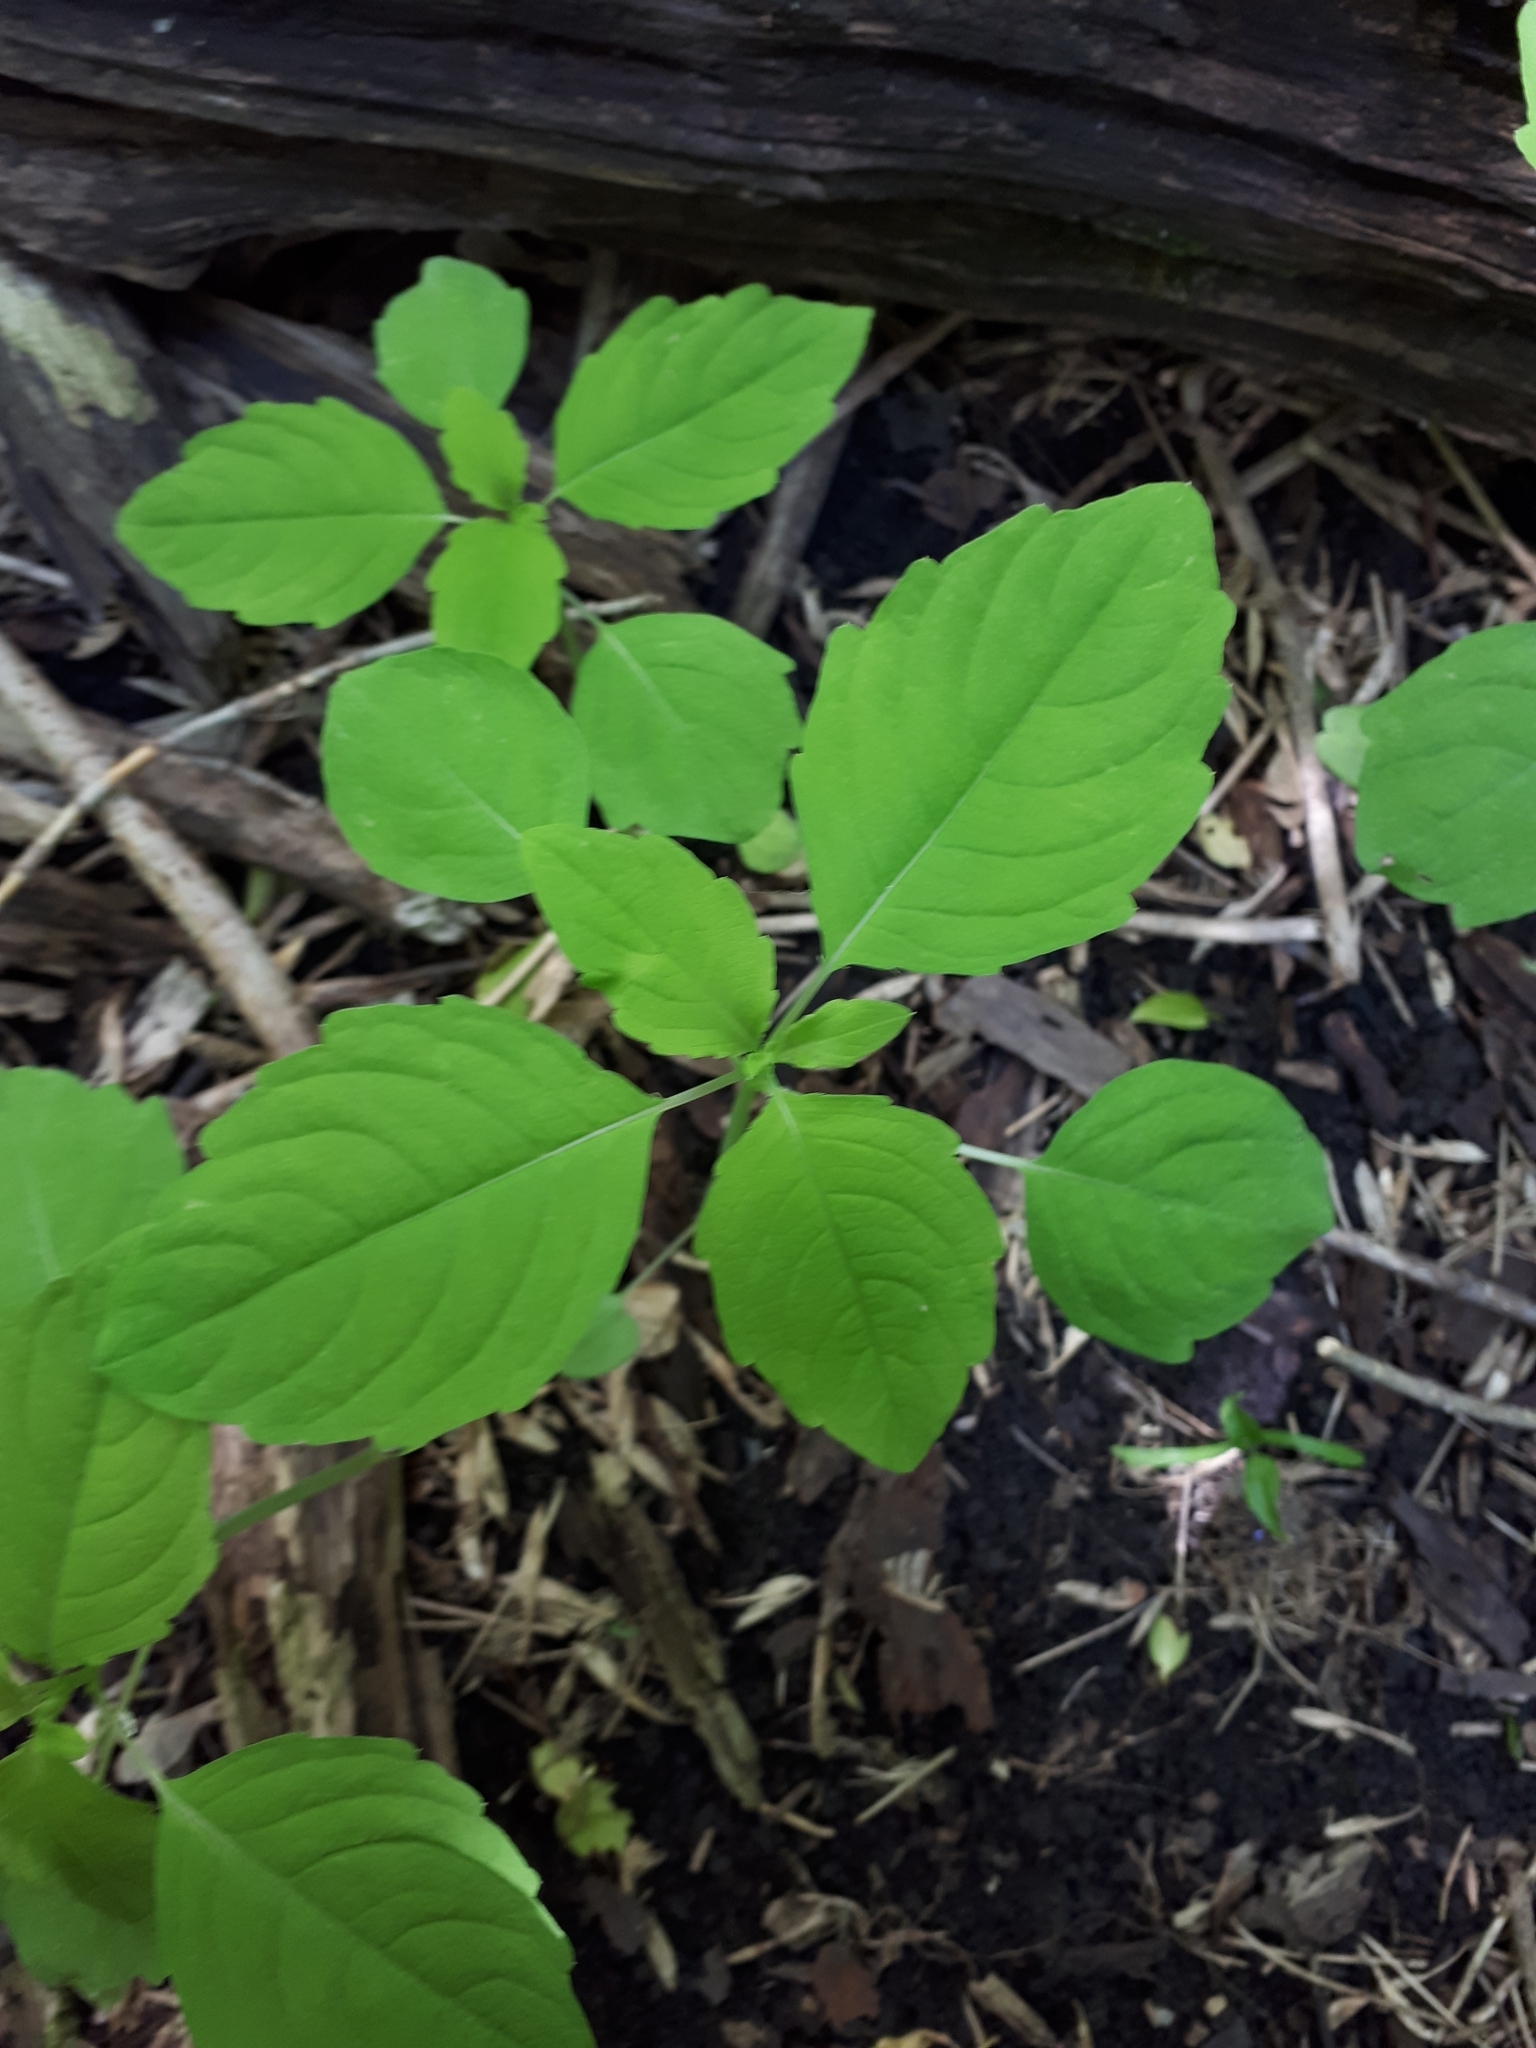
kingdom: Plantae
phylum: Tracheophyta
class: Magnoliopsida
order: Ericales
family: Balsaminaceae
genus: Impatiens
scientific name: Impatiens noli-tangere
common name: Touch-me-not balsam
